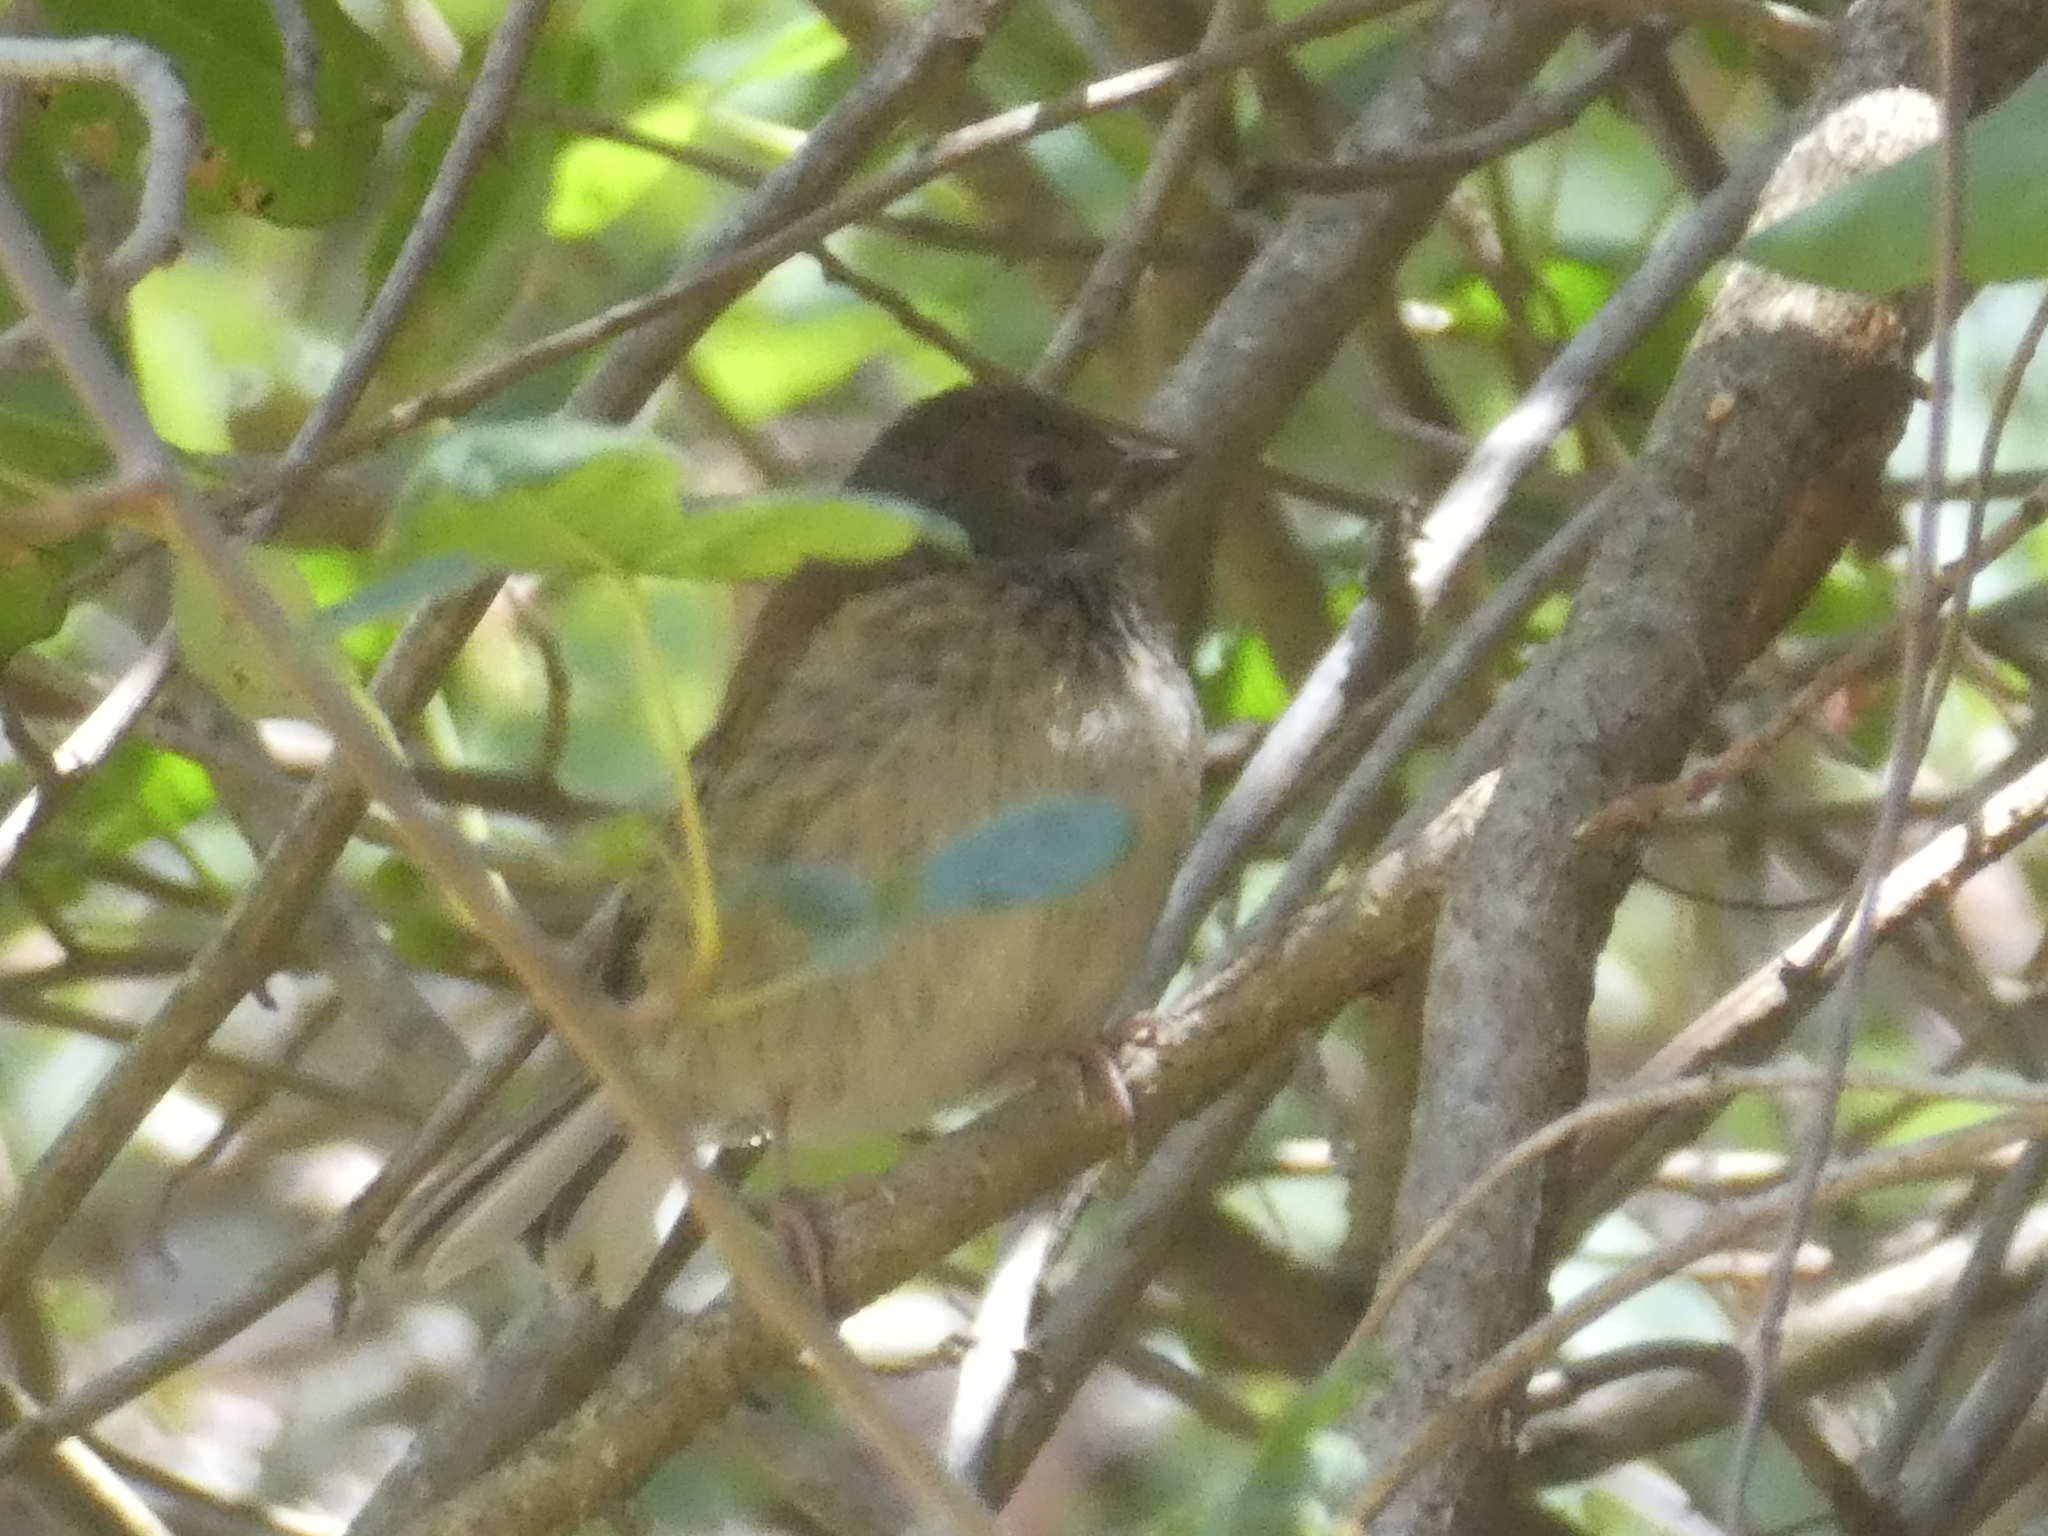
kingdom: Animalia
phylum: Chordata
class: Aves
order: Passeriformes
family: Passerellidae
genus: Junco
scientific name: Junco hyemalis
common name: Dark-eyed junco
